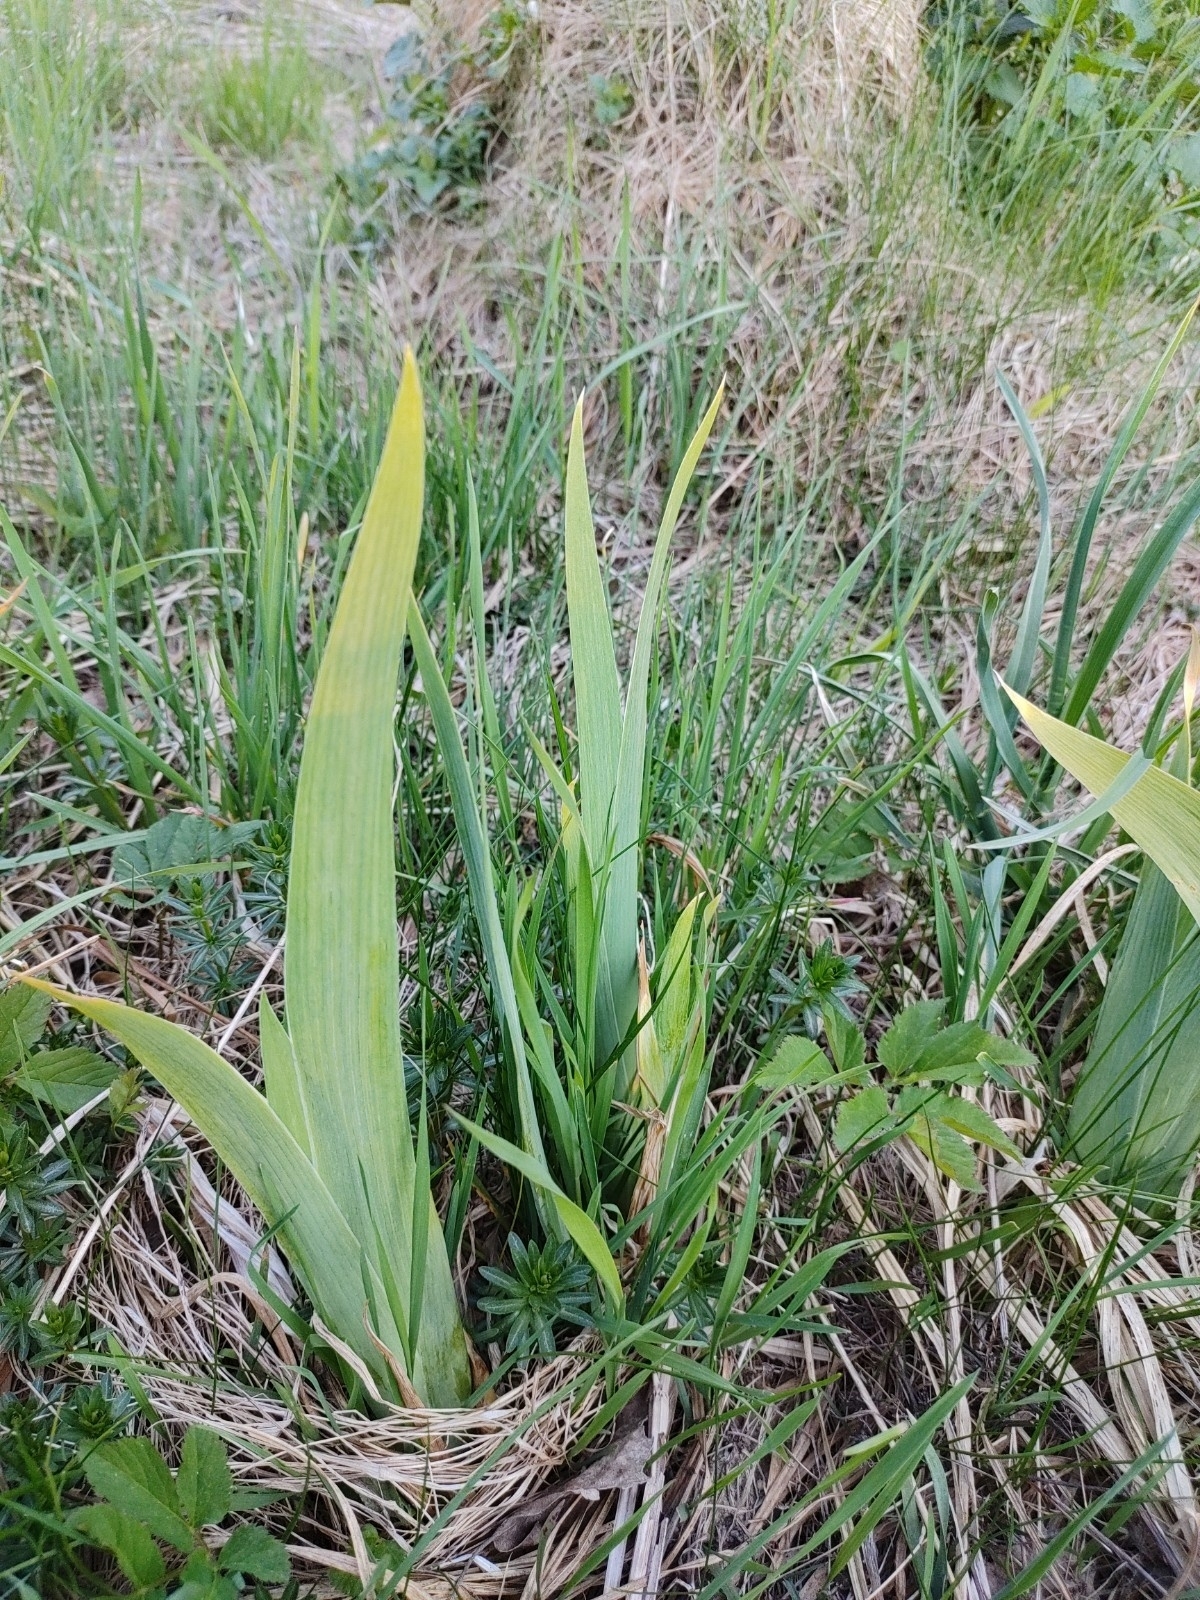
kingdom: Plantae
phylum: Tracheophyta
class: Liliopsida
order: Asparagales
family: Iridaceae
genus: Iris
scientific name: Iris pseudacorus
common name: Yellow flag
